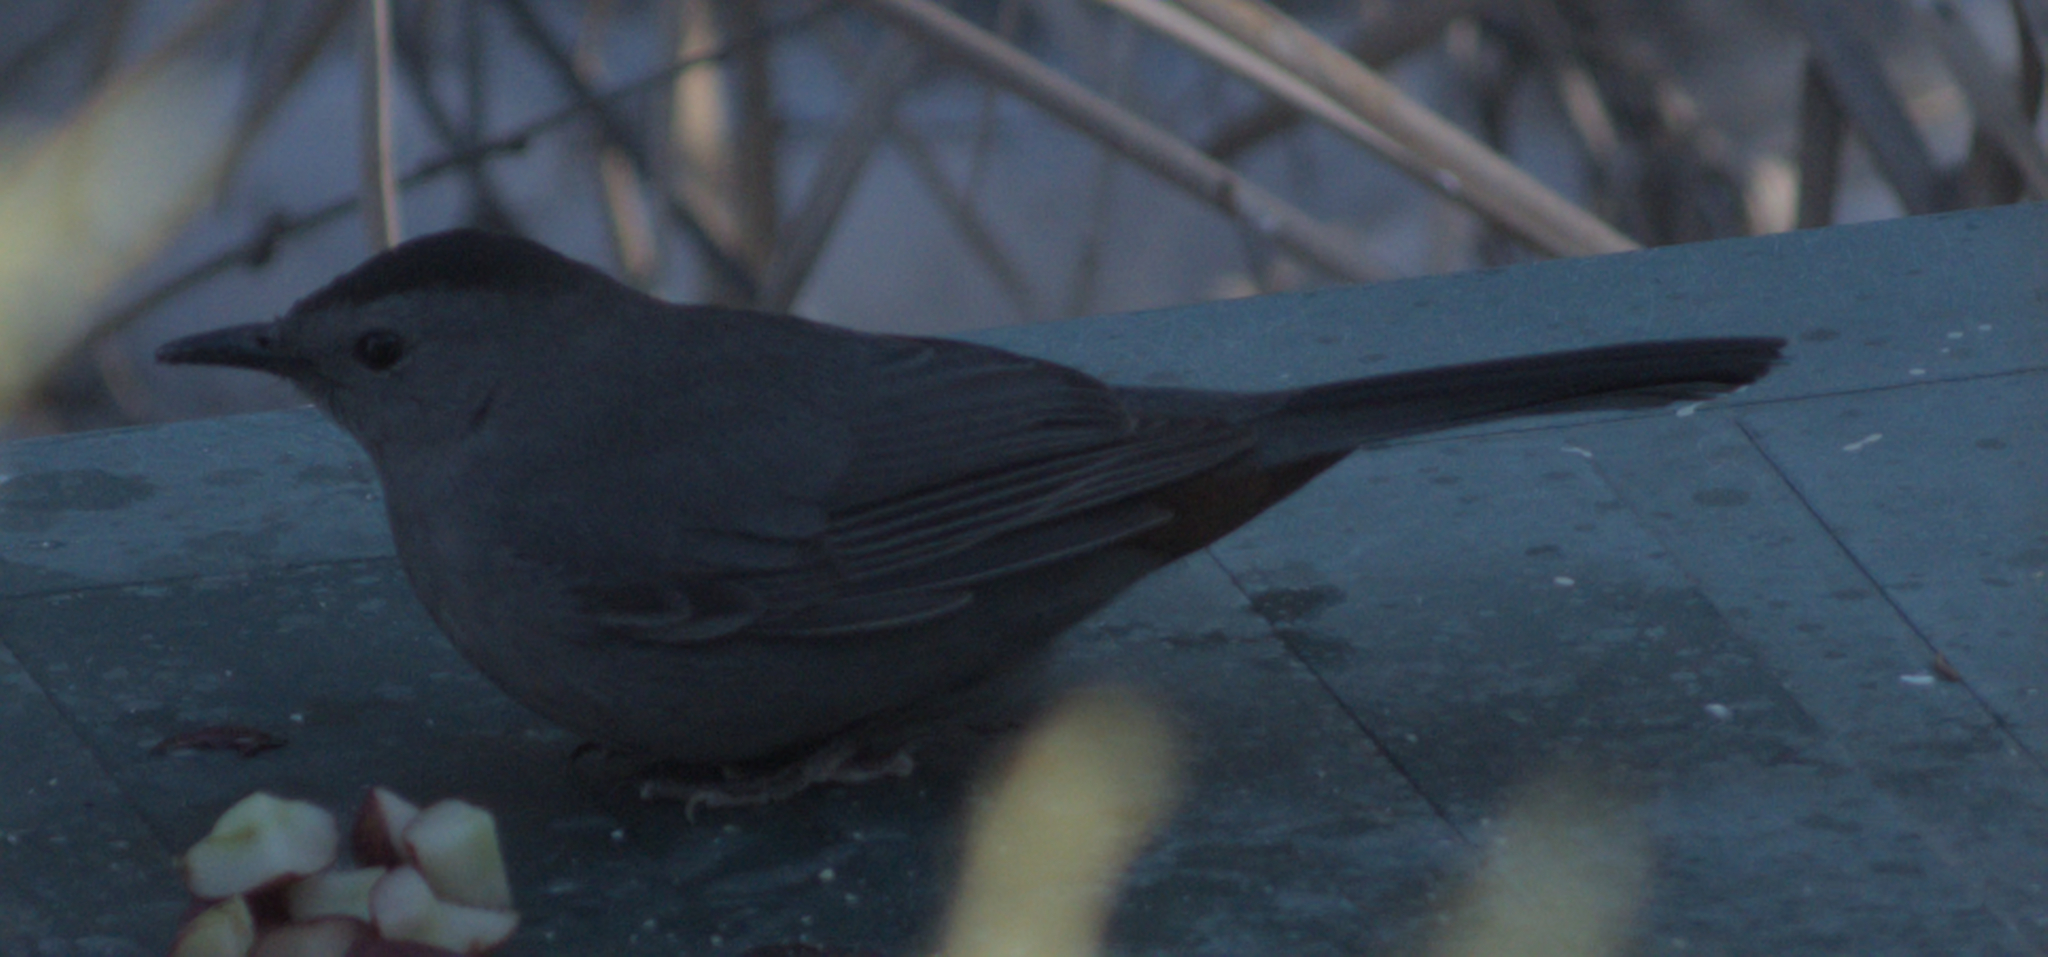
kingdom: Animalia
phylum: Chordata
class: Aves
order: Passeriformes
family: Mimidae
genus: Dumetella
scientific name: Dumetella carolinensis
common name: Gray catbird
